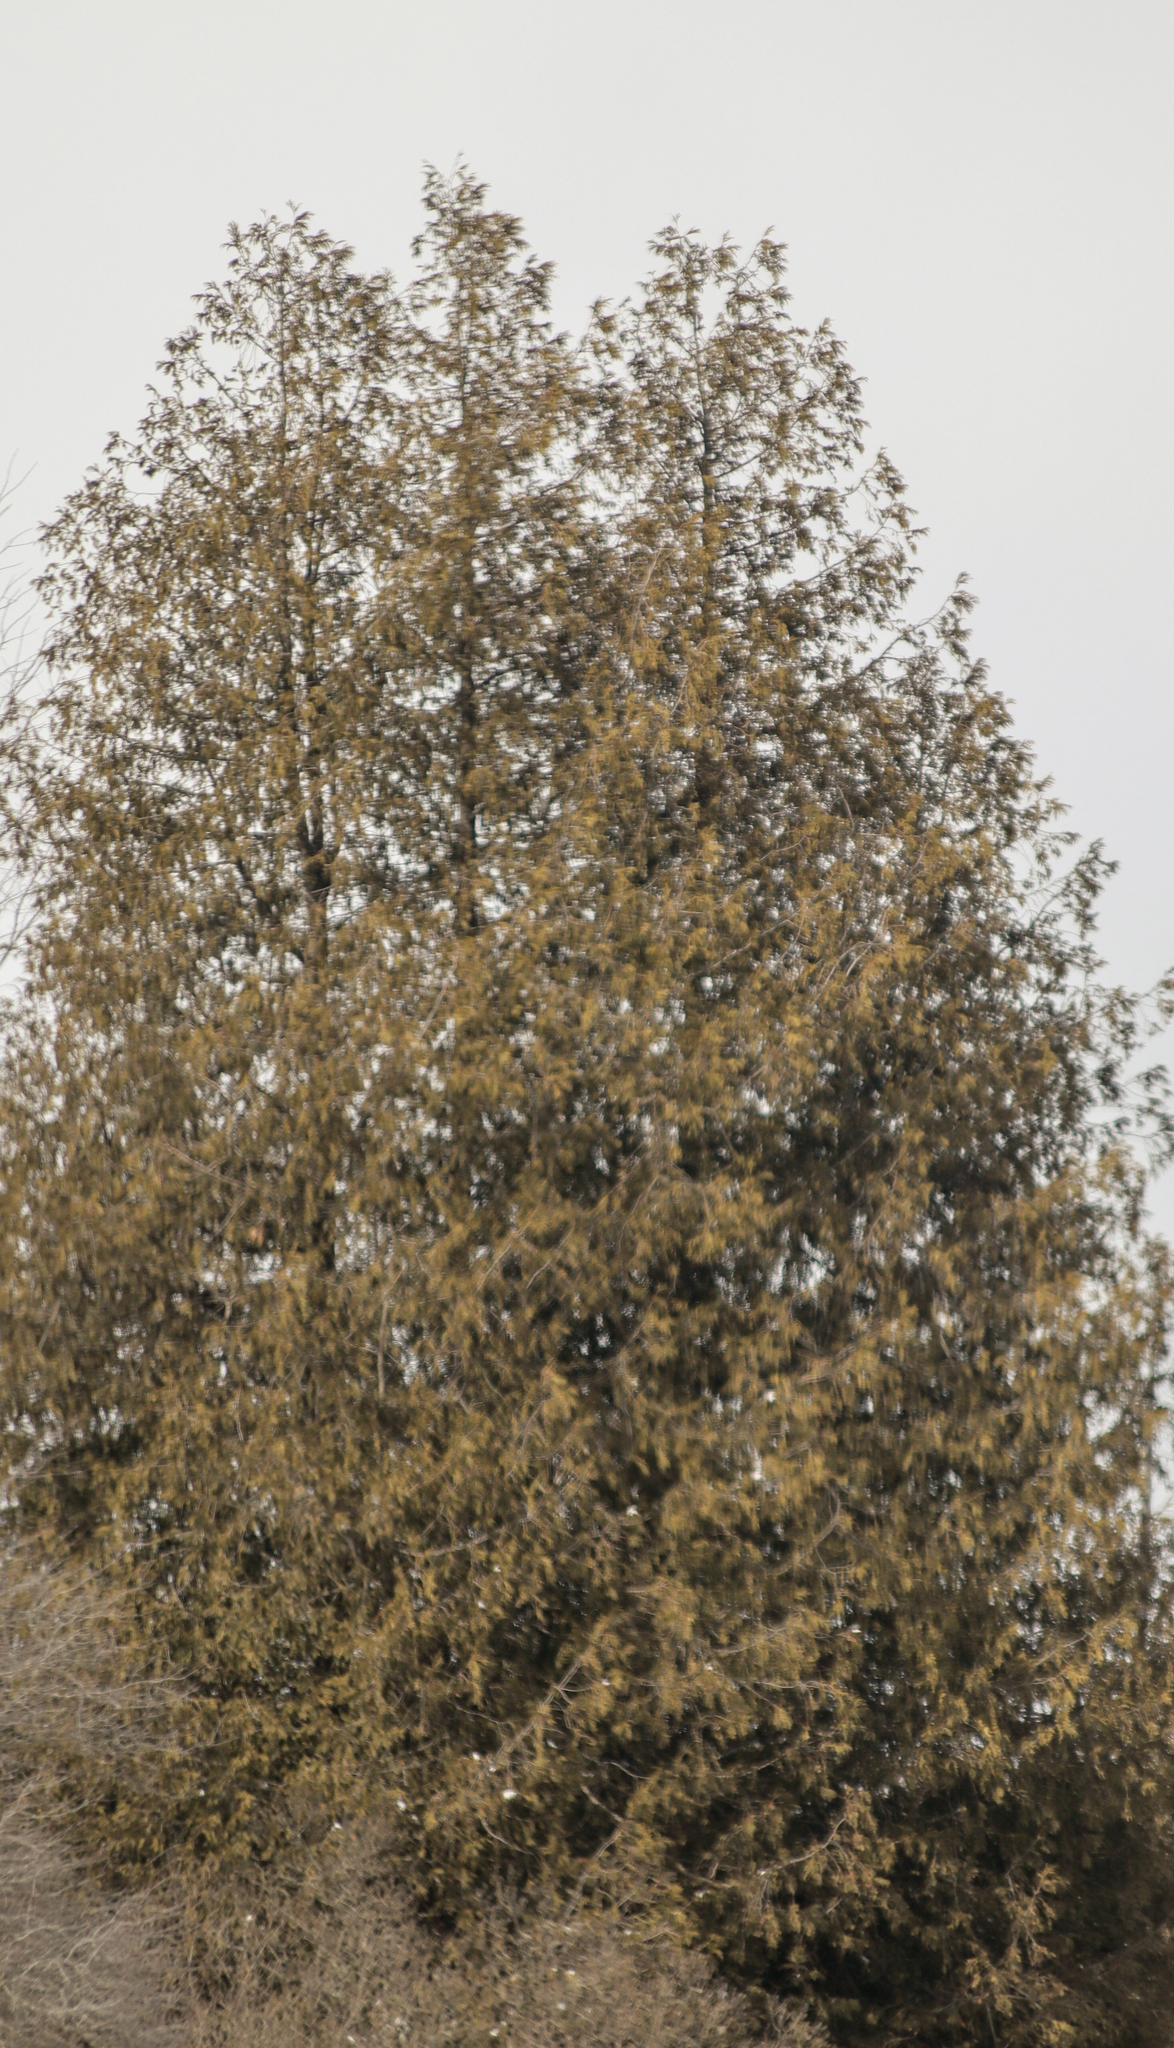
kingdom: Plantae
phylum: Tracheophyta
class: Pinopsida
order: Pinales
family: Cupressaceae
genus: Thuja
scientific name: Thuja occidentalis
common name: Northern white-cedar
